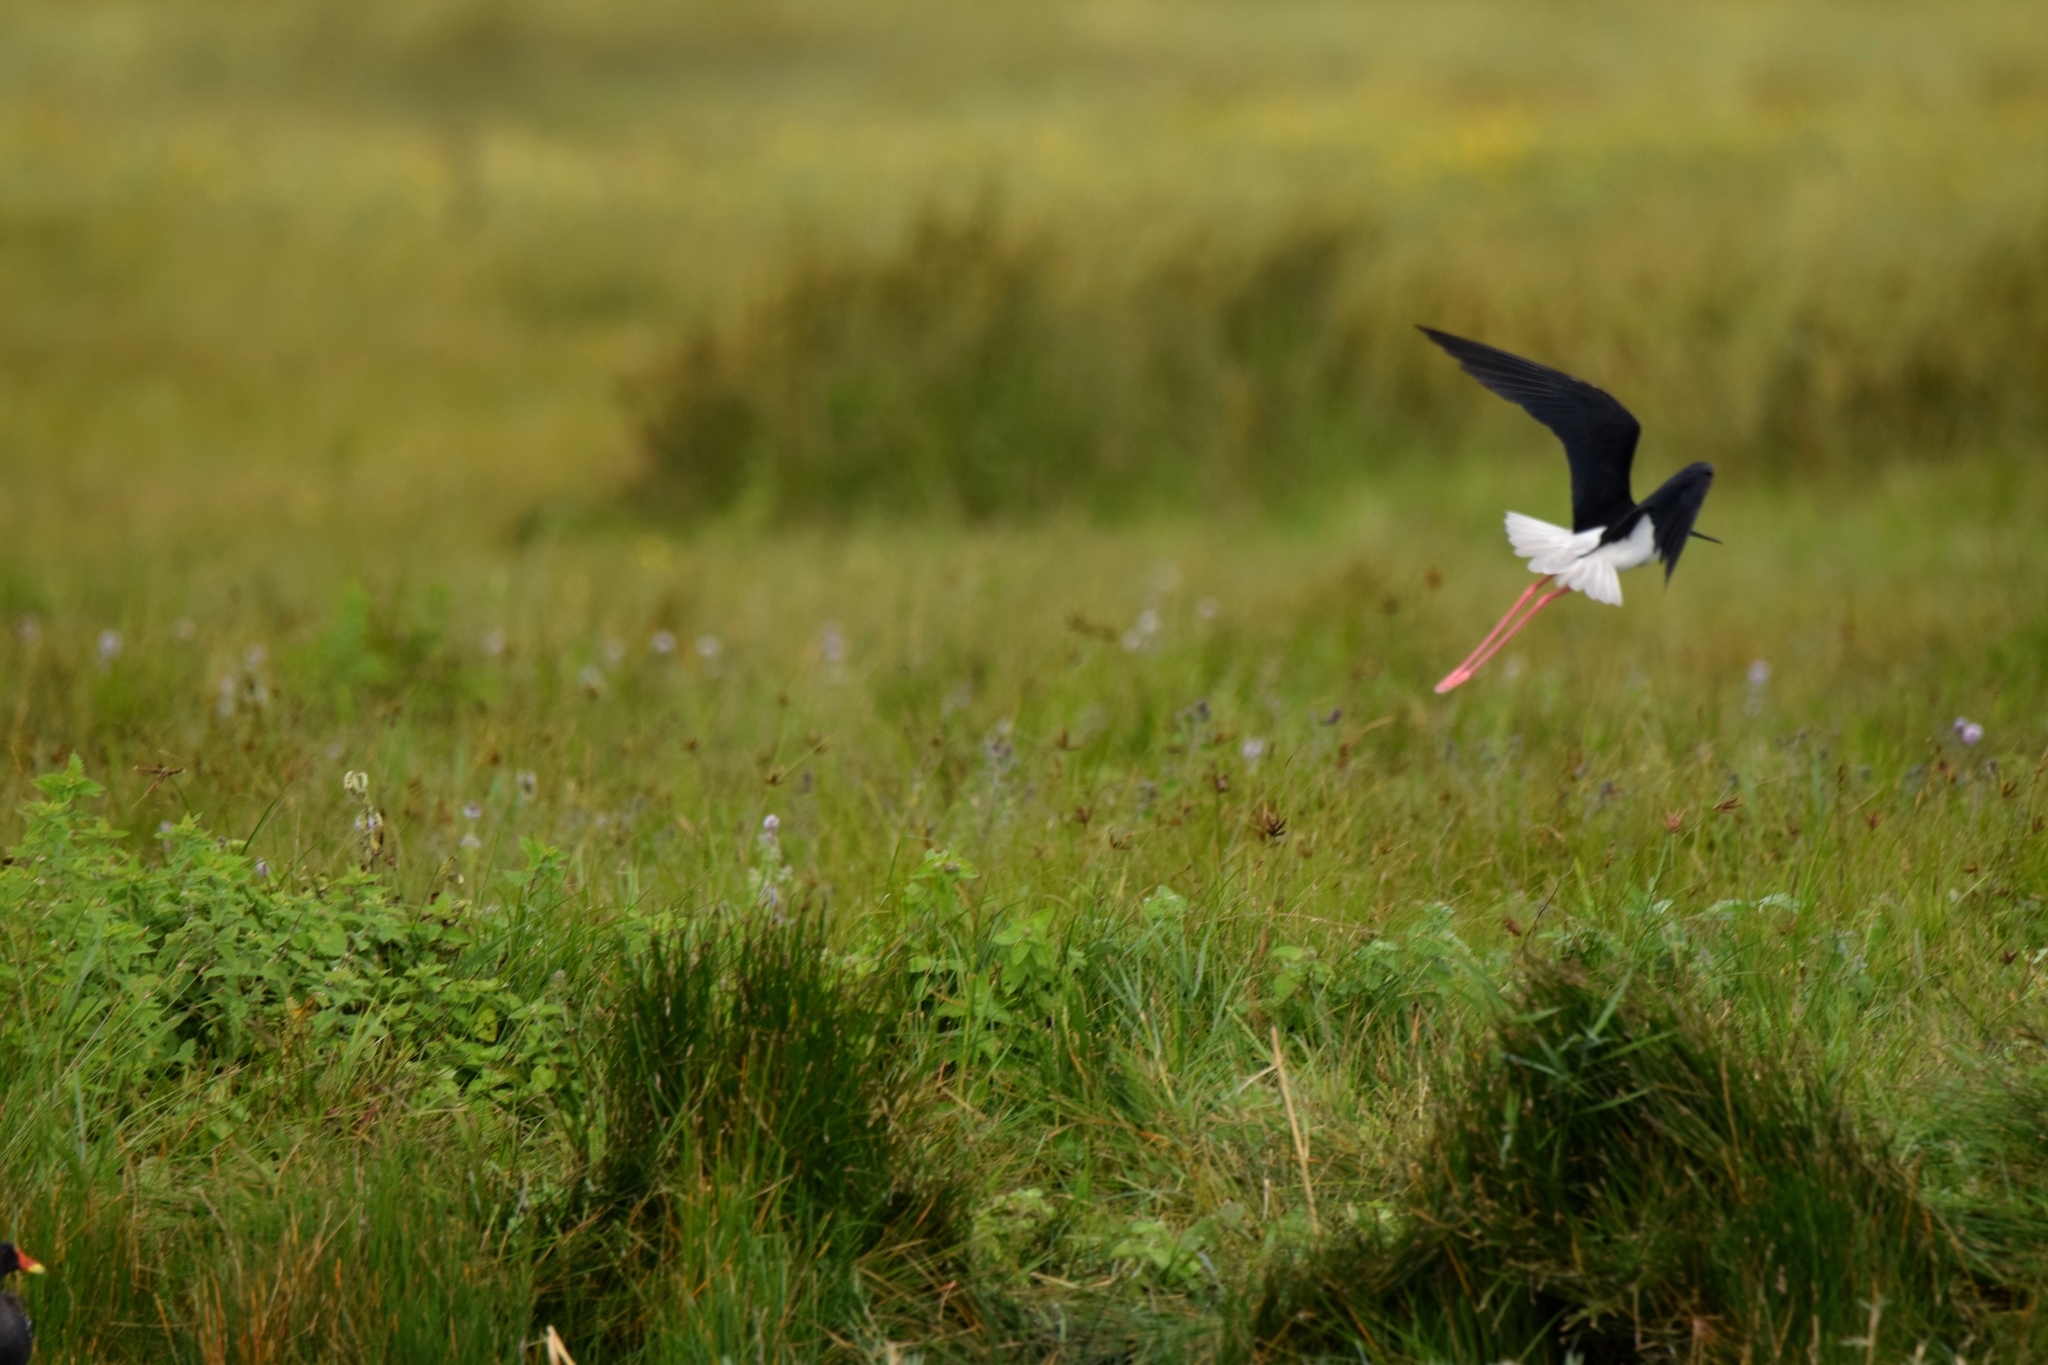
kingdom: Animalia
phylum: Chordata
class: Aves
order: Charadriiformes
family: Recurvirostridae
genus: Himantopus
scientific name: Himantopus himantopus
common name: Black-winged stilt
